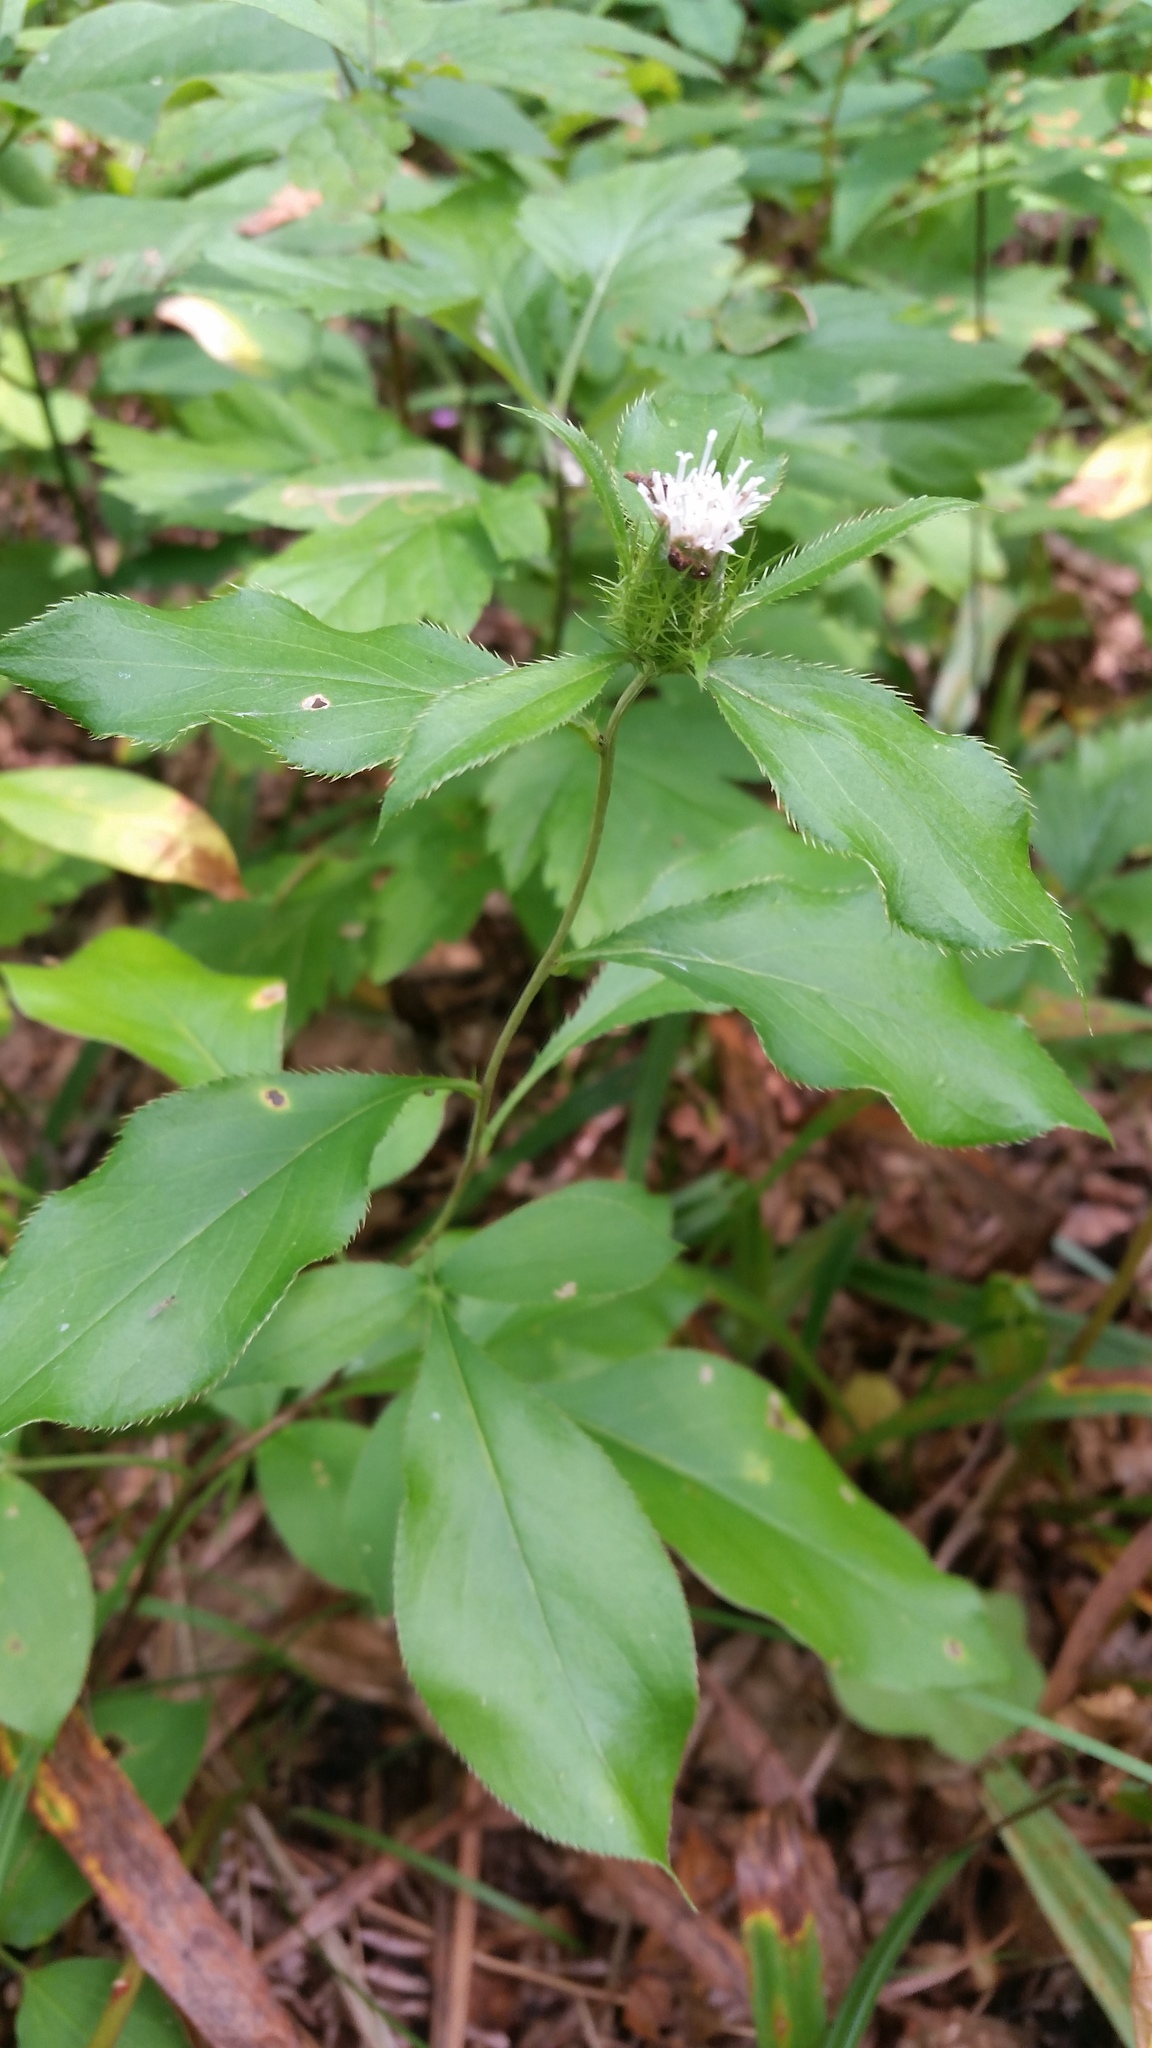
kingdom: Plantae
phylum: Tracheophyta
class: Magnoliopsida
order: Asterales
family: Asteraceae
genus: Atractylodes
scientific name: Atractylodes lancea
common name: Southern tsangshu
